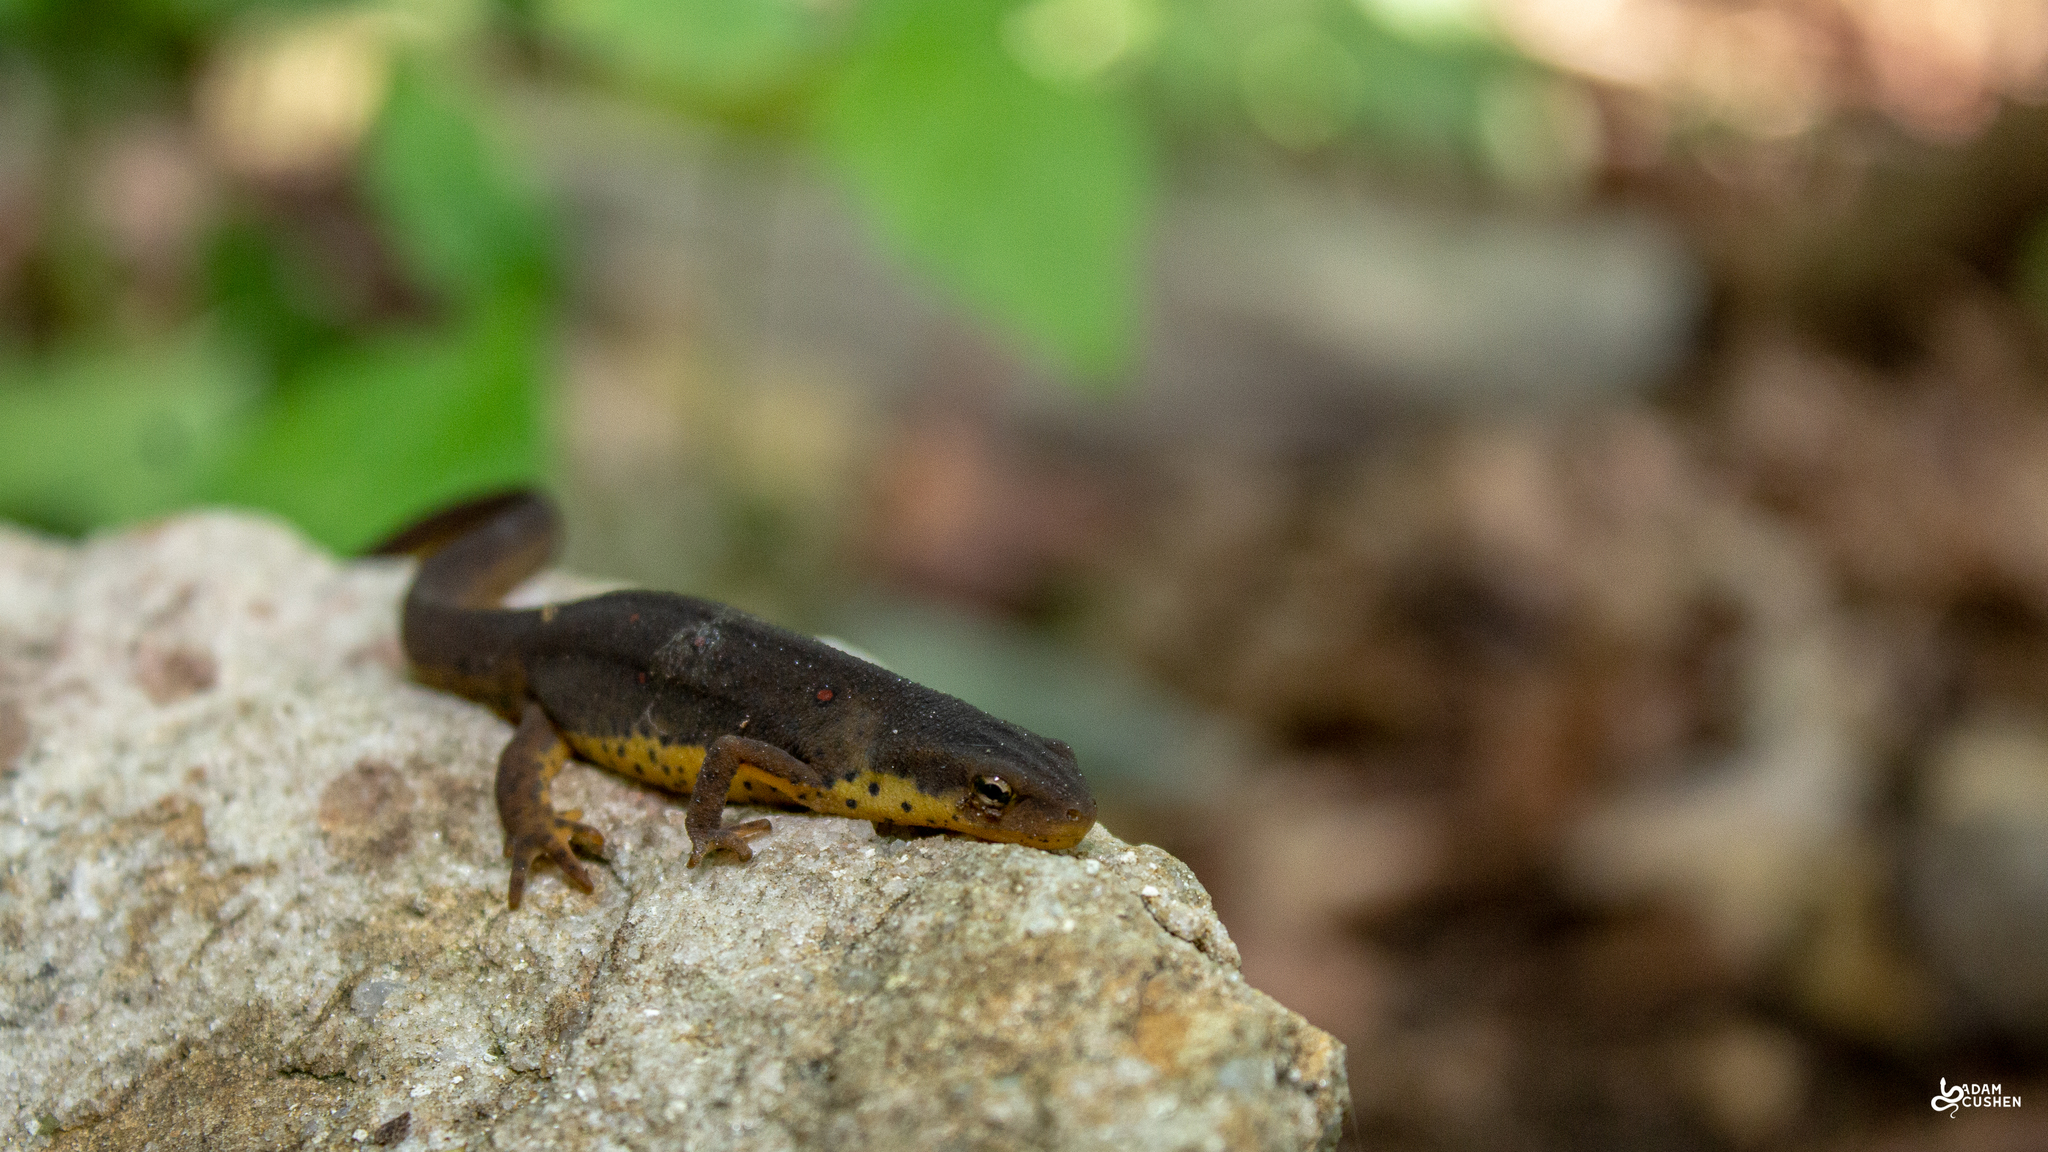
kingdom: Animalia
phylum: Chordata
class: Amphibia
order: Caudata
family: Salamandridae
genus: Notophthalmus
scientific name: Notophthalmus viridescens
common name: Eastern newt
